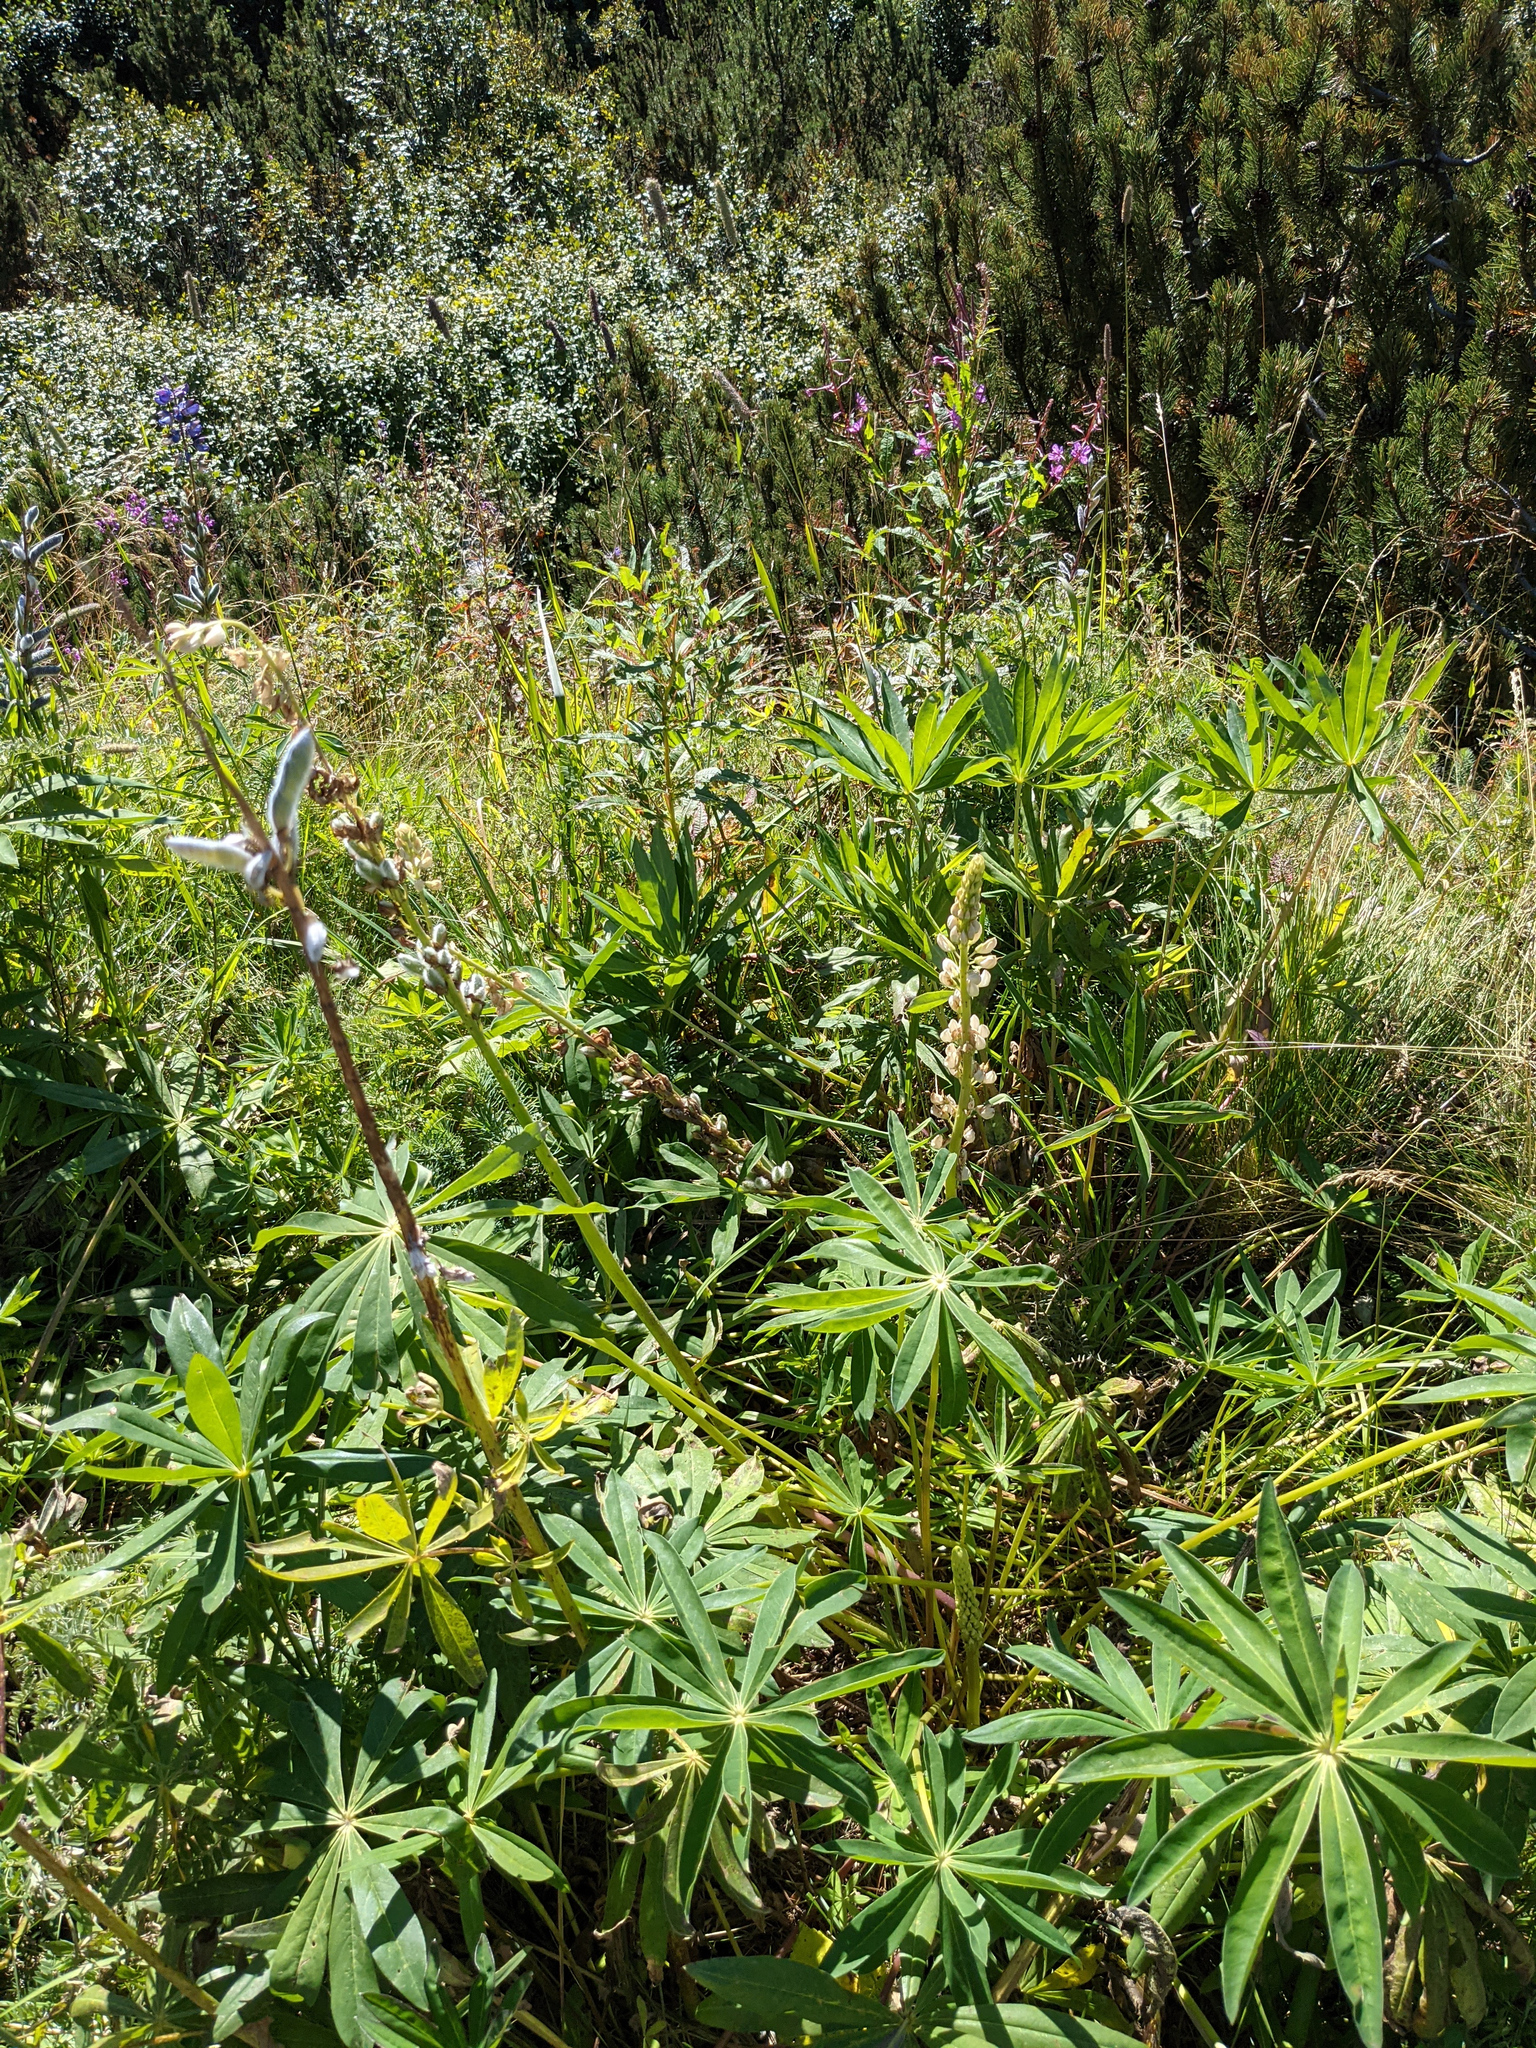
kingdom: Plantae
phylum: Tracheophyta
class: Magnoliopsida
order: Fabales
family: Fabaceae
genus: Lupinus
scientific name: Lupinus polyphyllus
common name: Garden lupin
